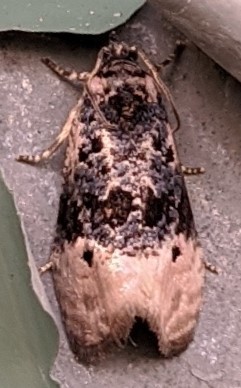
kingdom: Animalia
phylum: Arthropoda
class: Insecta
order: Lepidoptera
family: Tortricidae
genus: Hedya
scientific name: Hedya separatana
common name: Pink-washed leafroller moth
